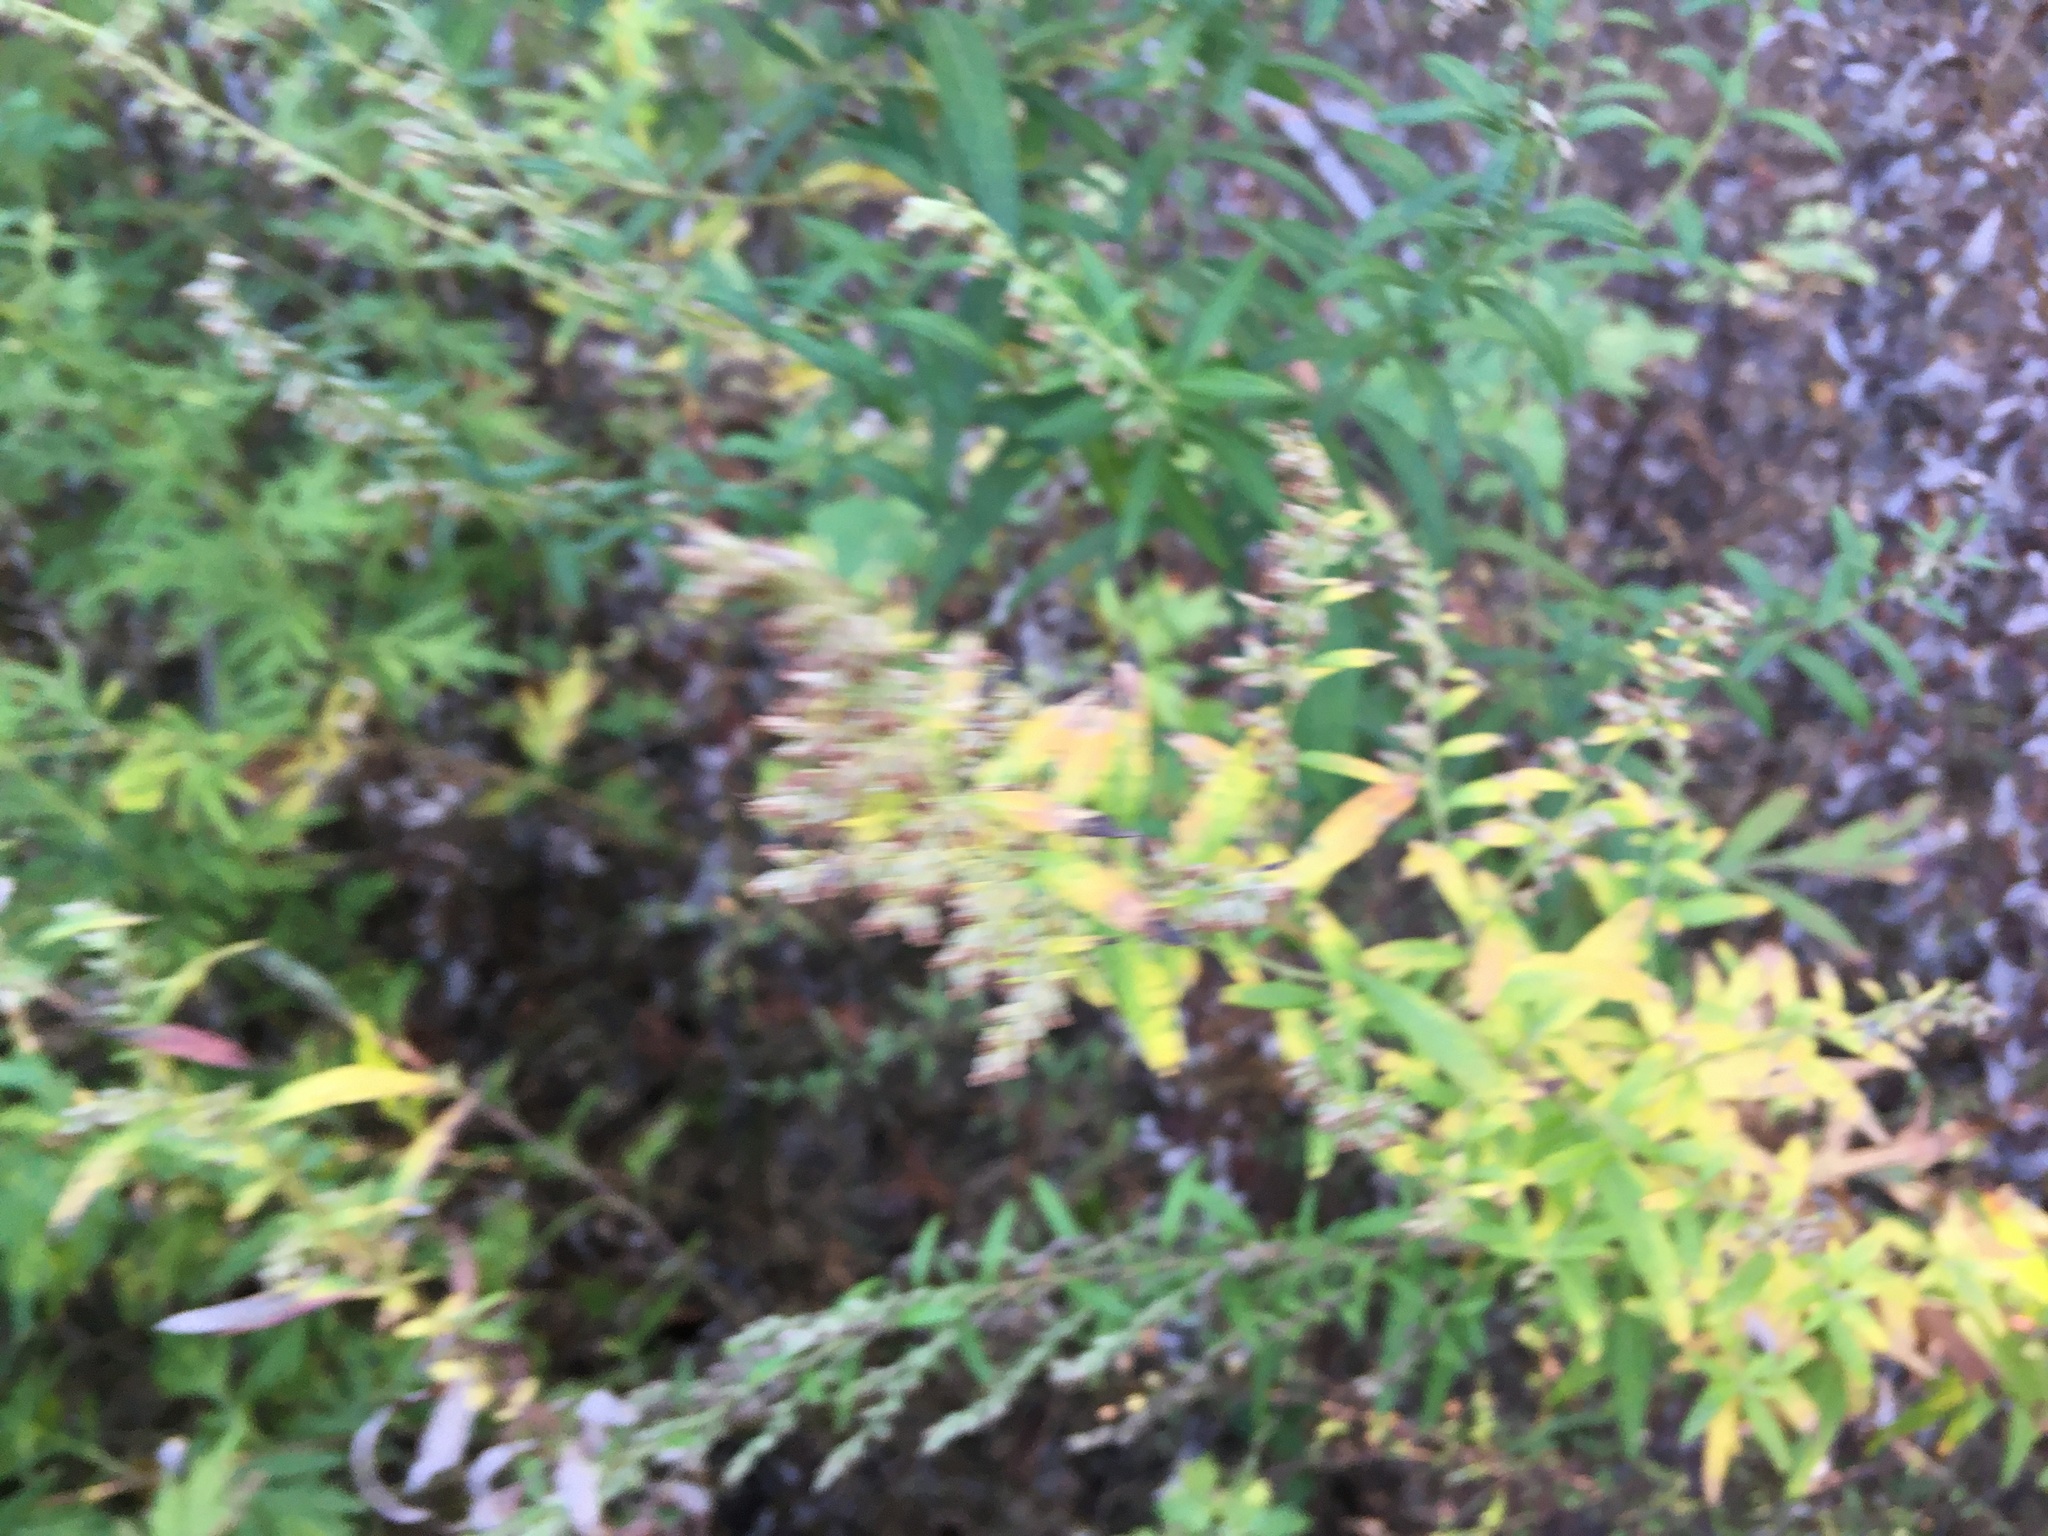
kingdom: Plantae
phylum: Tracheophyta
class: Magnoliopsida
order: Asterales
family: Asteraceae
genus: Artemisia
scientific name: Artemisia vulgaris
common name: Mugwort
